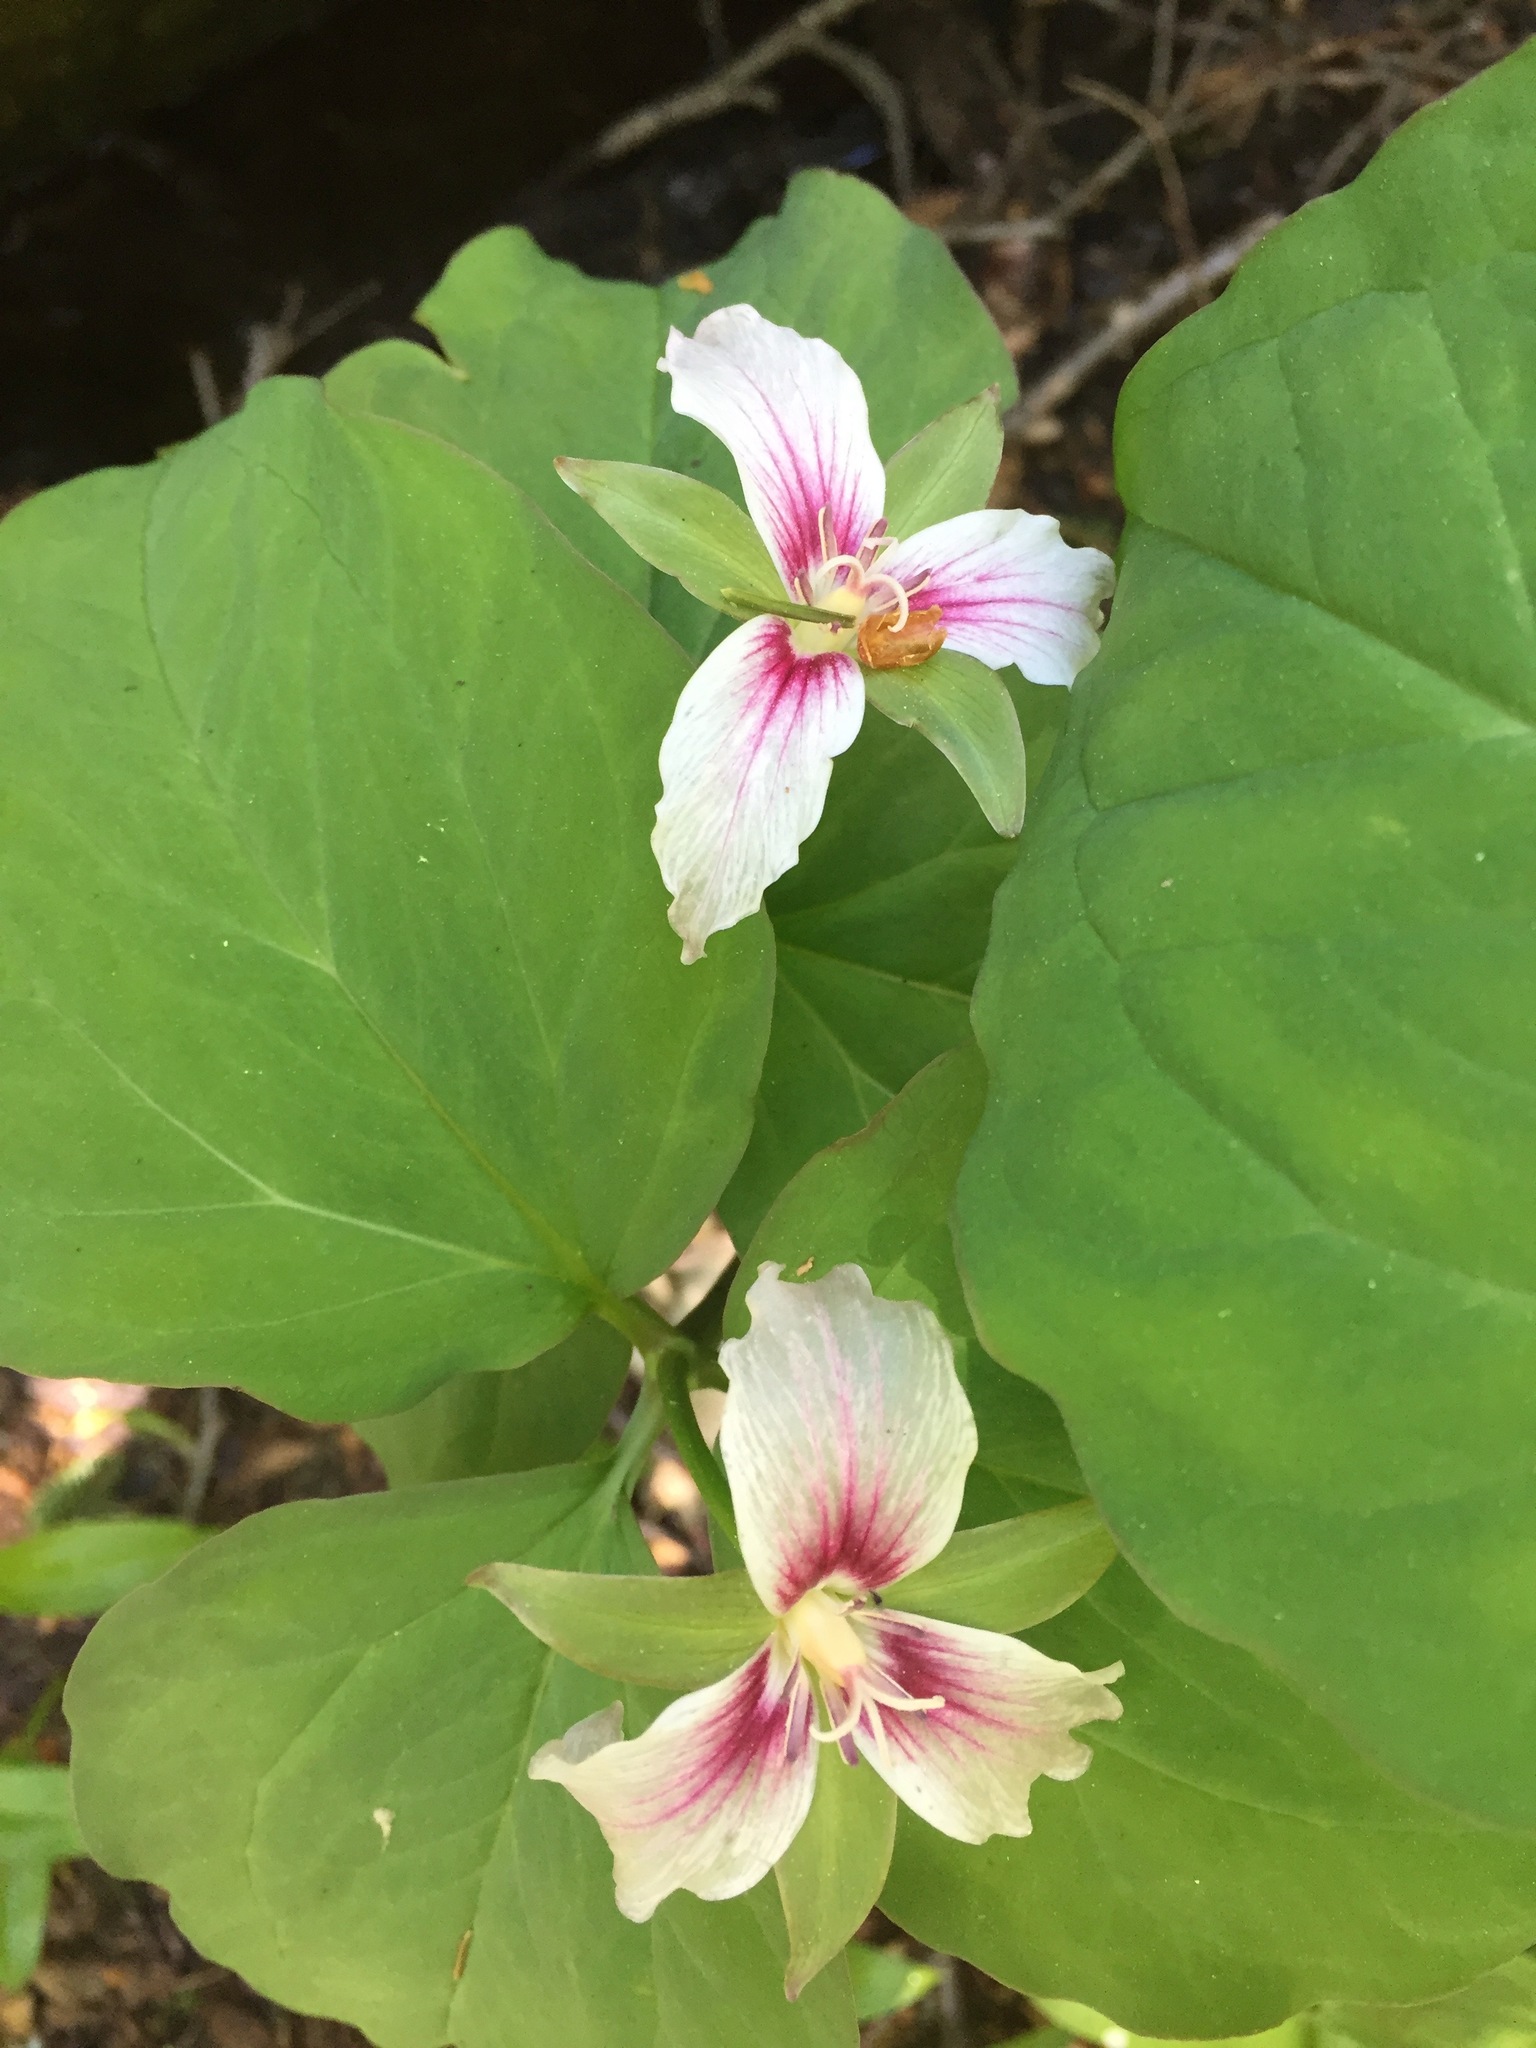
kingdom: Plantae
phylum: Tracheophyta
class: Liliopsida
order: Liliales
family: Melanthiaceae
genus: Trillium
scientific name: Trillium undulatum
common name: Paint trillium
